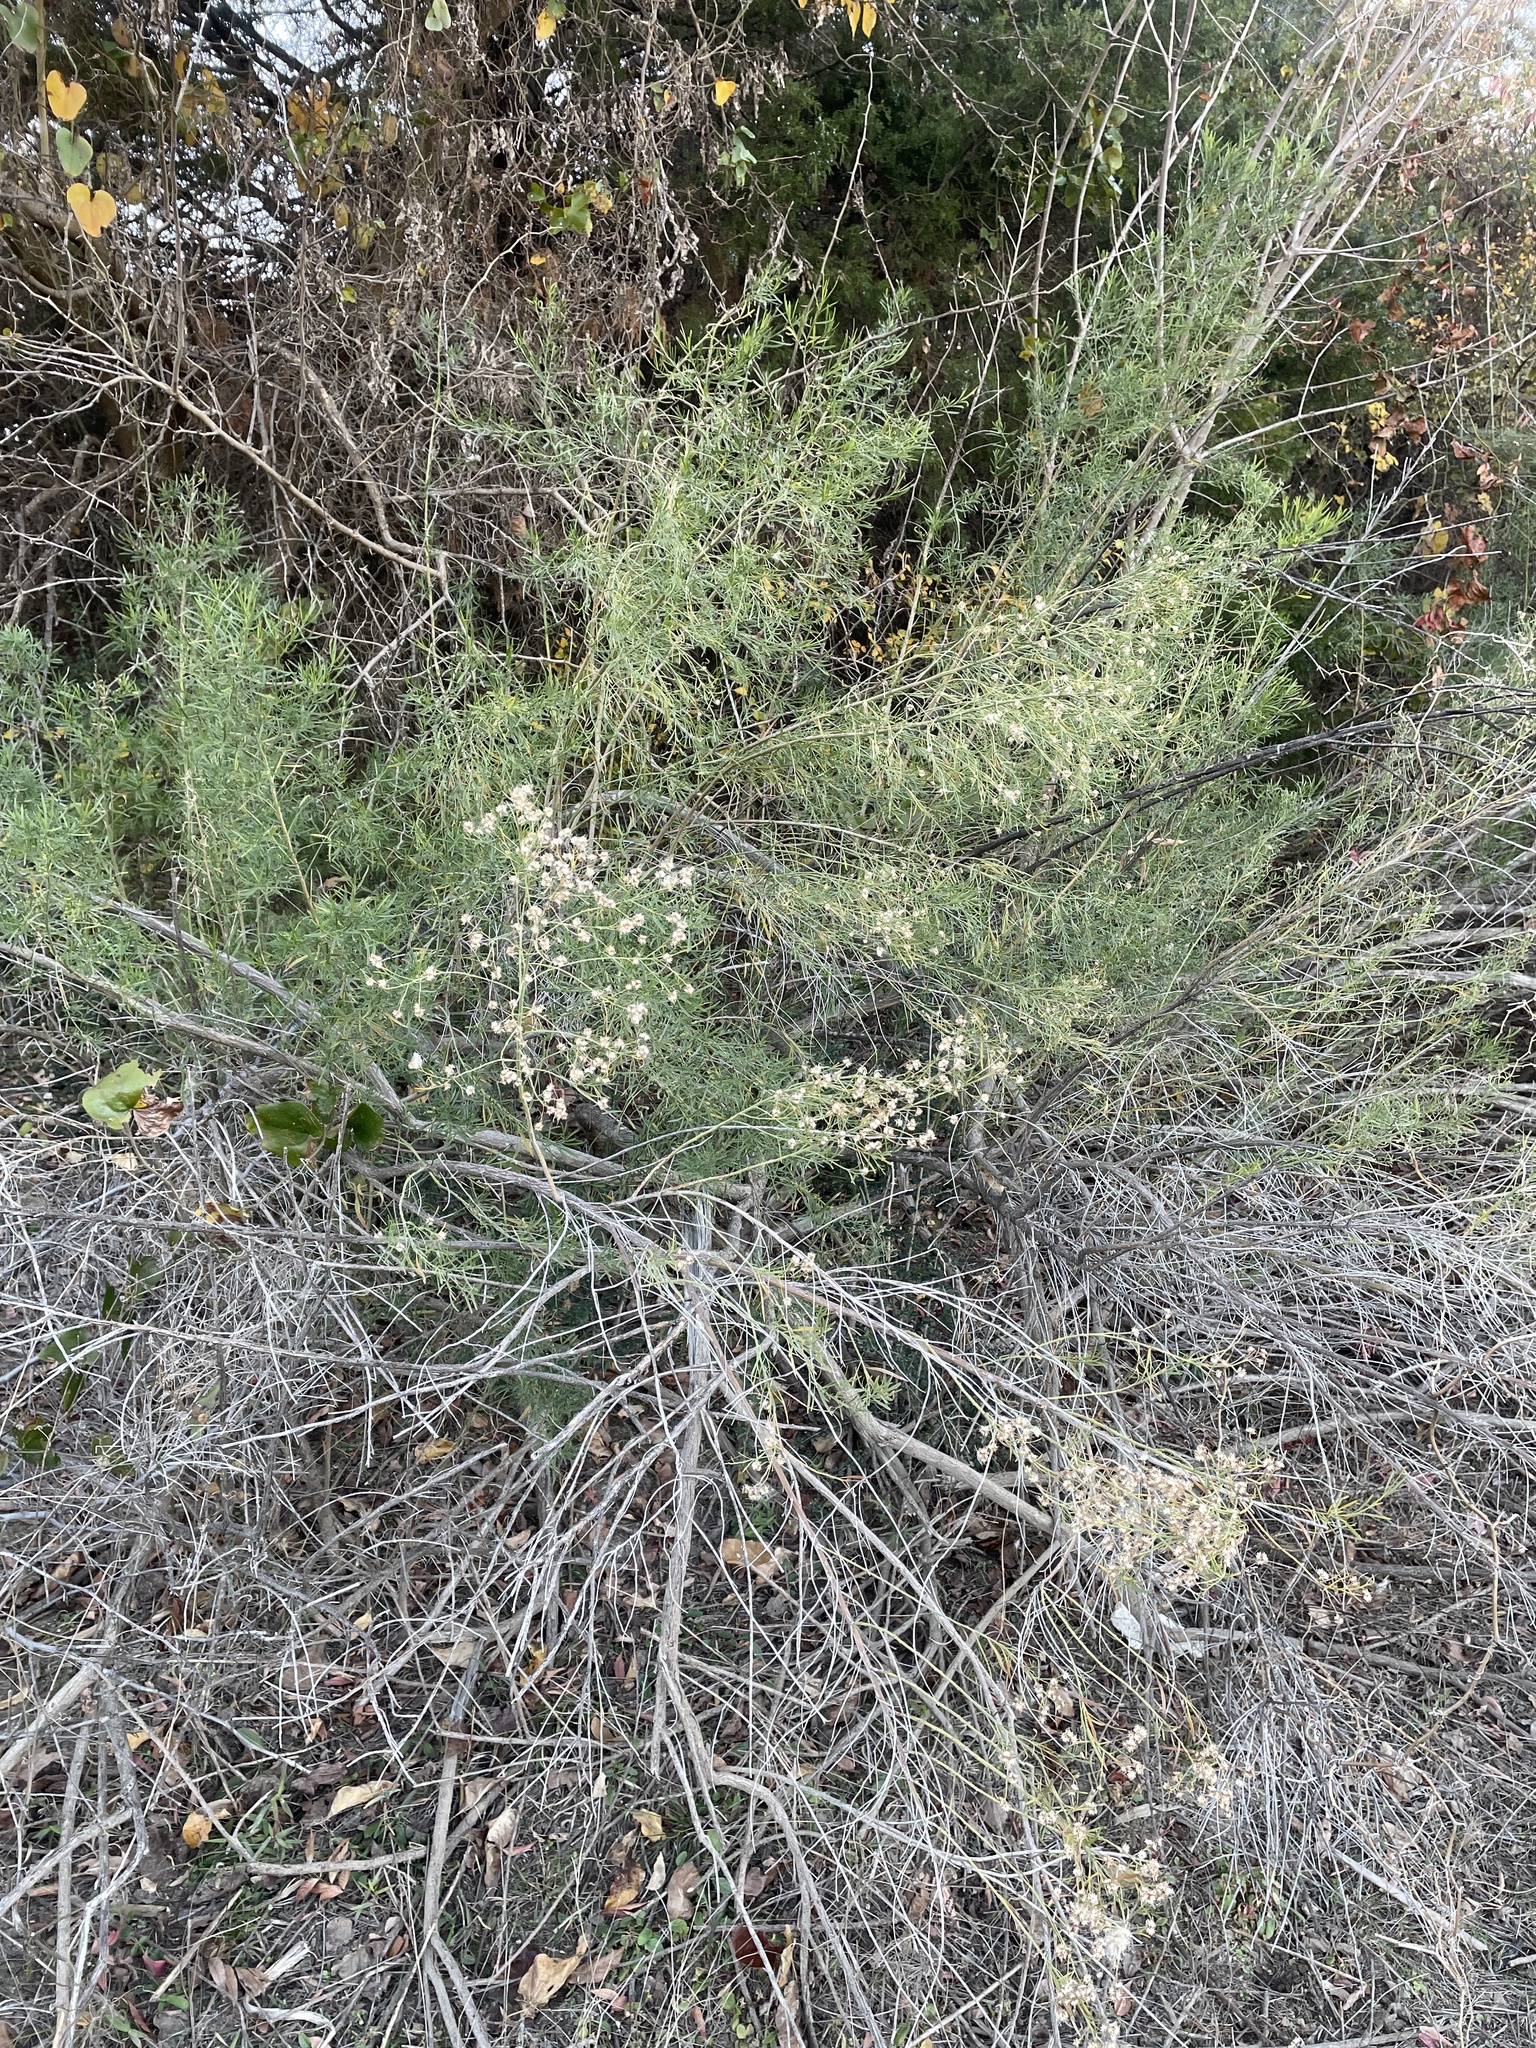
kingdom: Plantae
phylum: Tracheophyta
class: Magnoliopsida
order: Asterales
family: Asteraceae
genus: Baccharis
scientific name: Baccharis neglecta
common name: Roosevelt-weed
